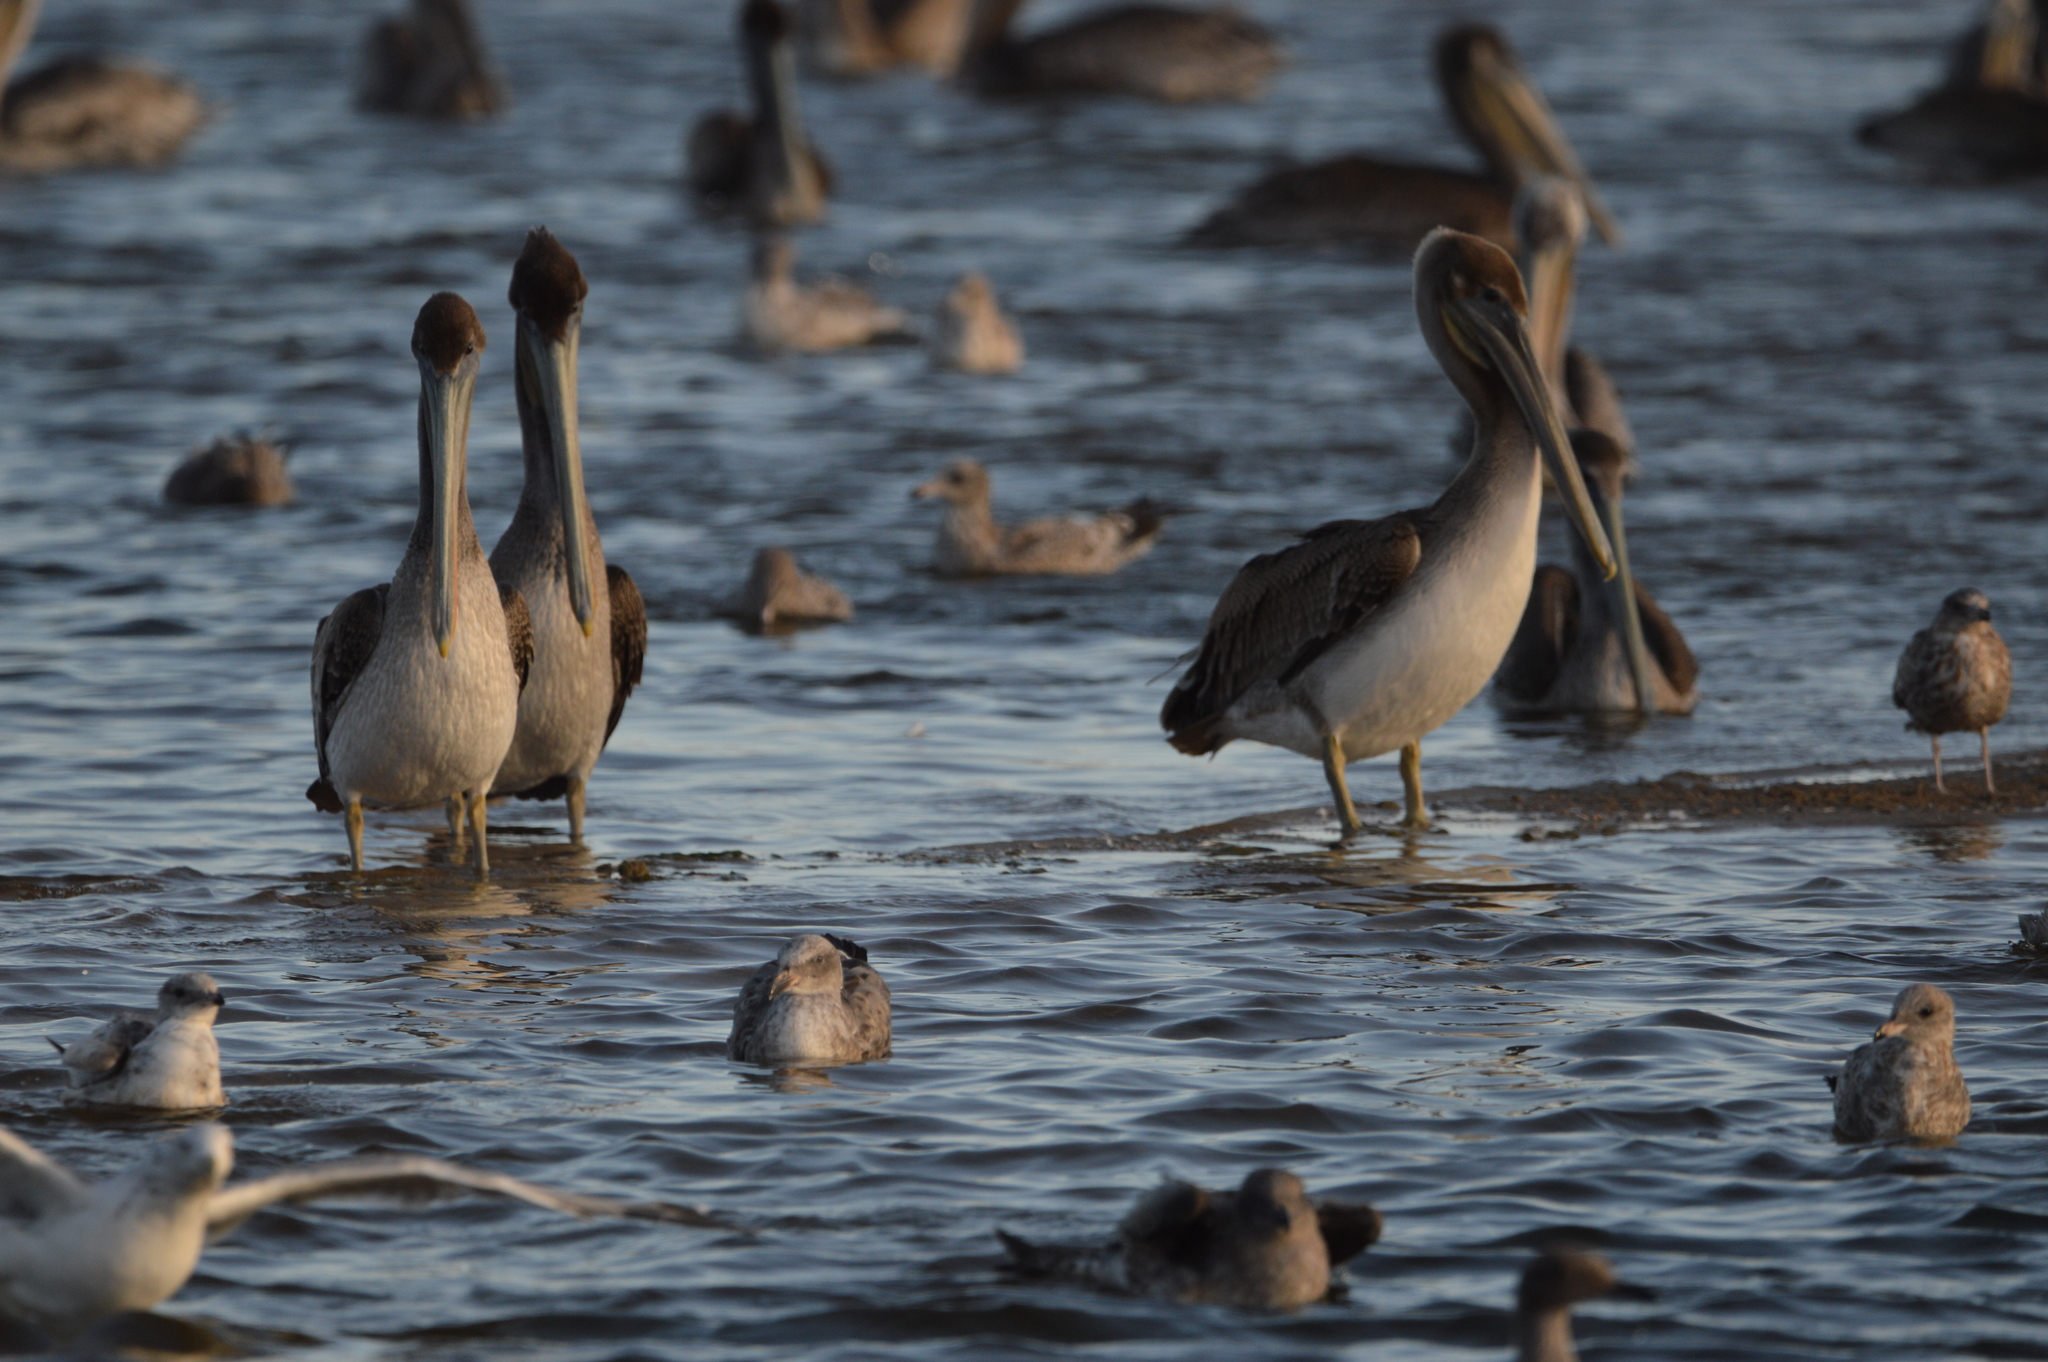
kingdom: Animalia
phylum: Chordata
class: Aves
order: Pelecaniformes
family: Pelecanidae
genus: Pelecanus
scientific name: Pelecanus occidentalis
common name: Brown pelican
